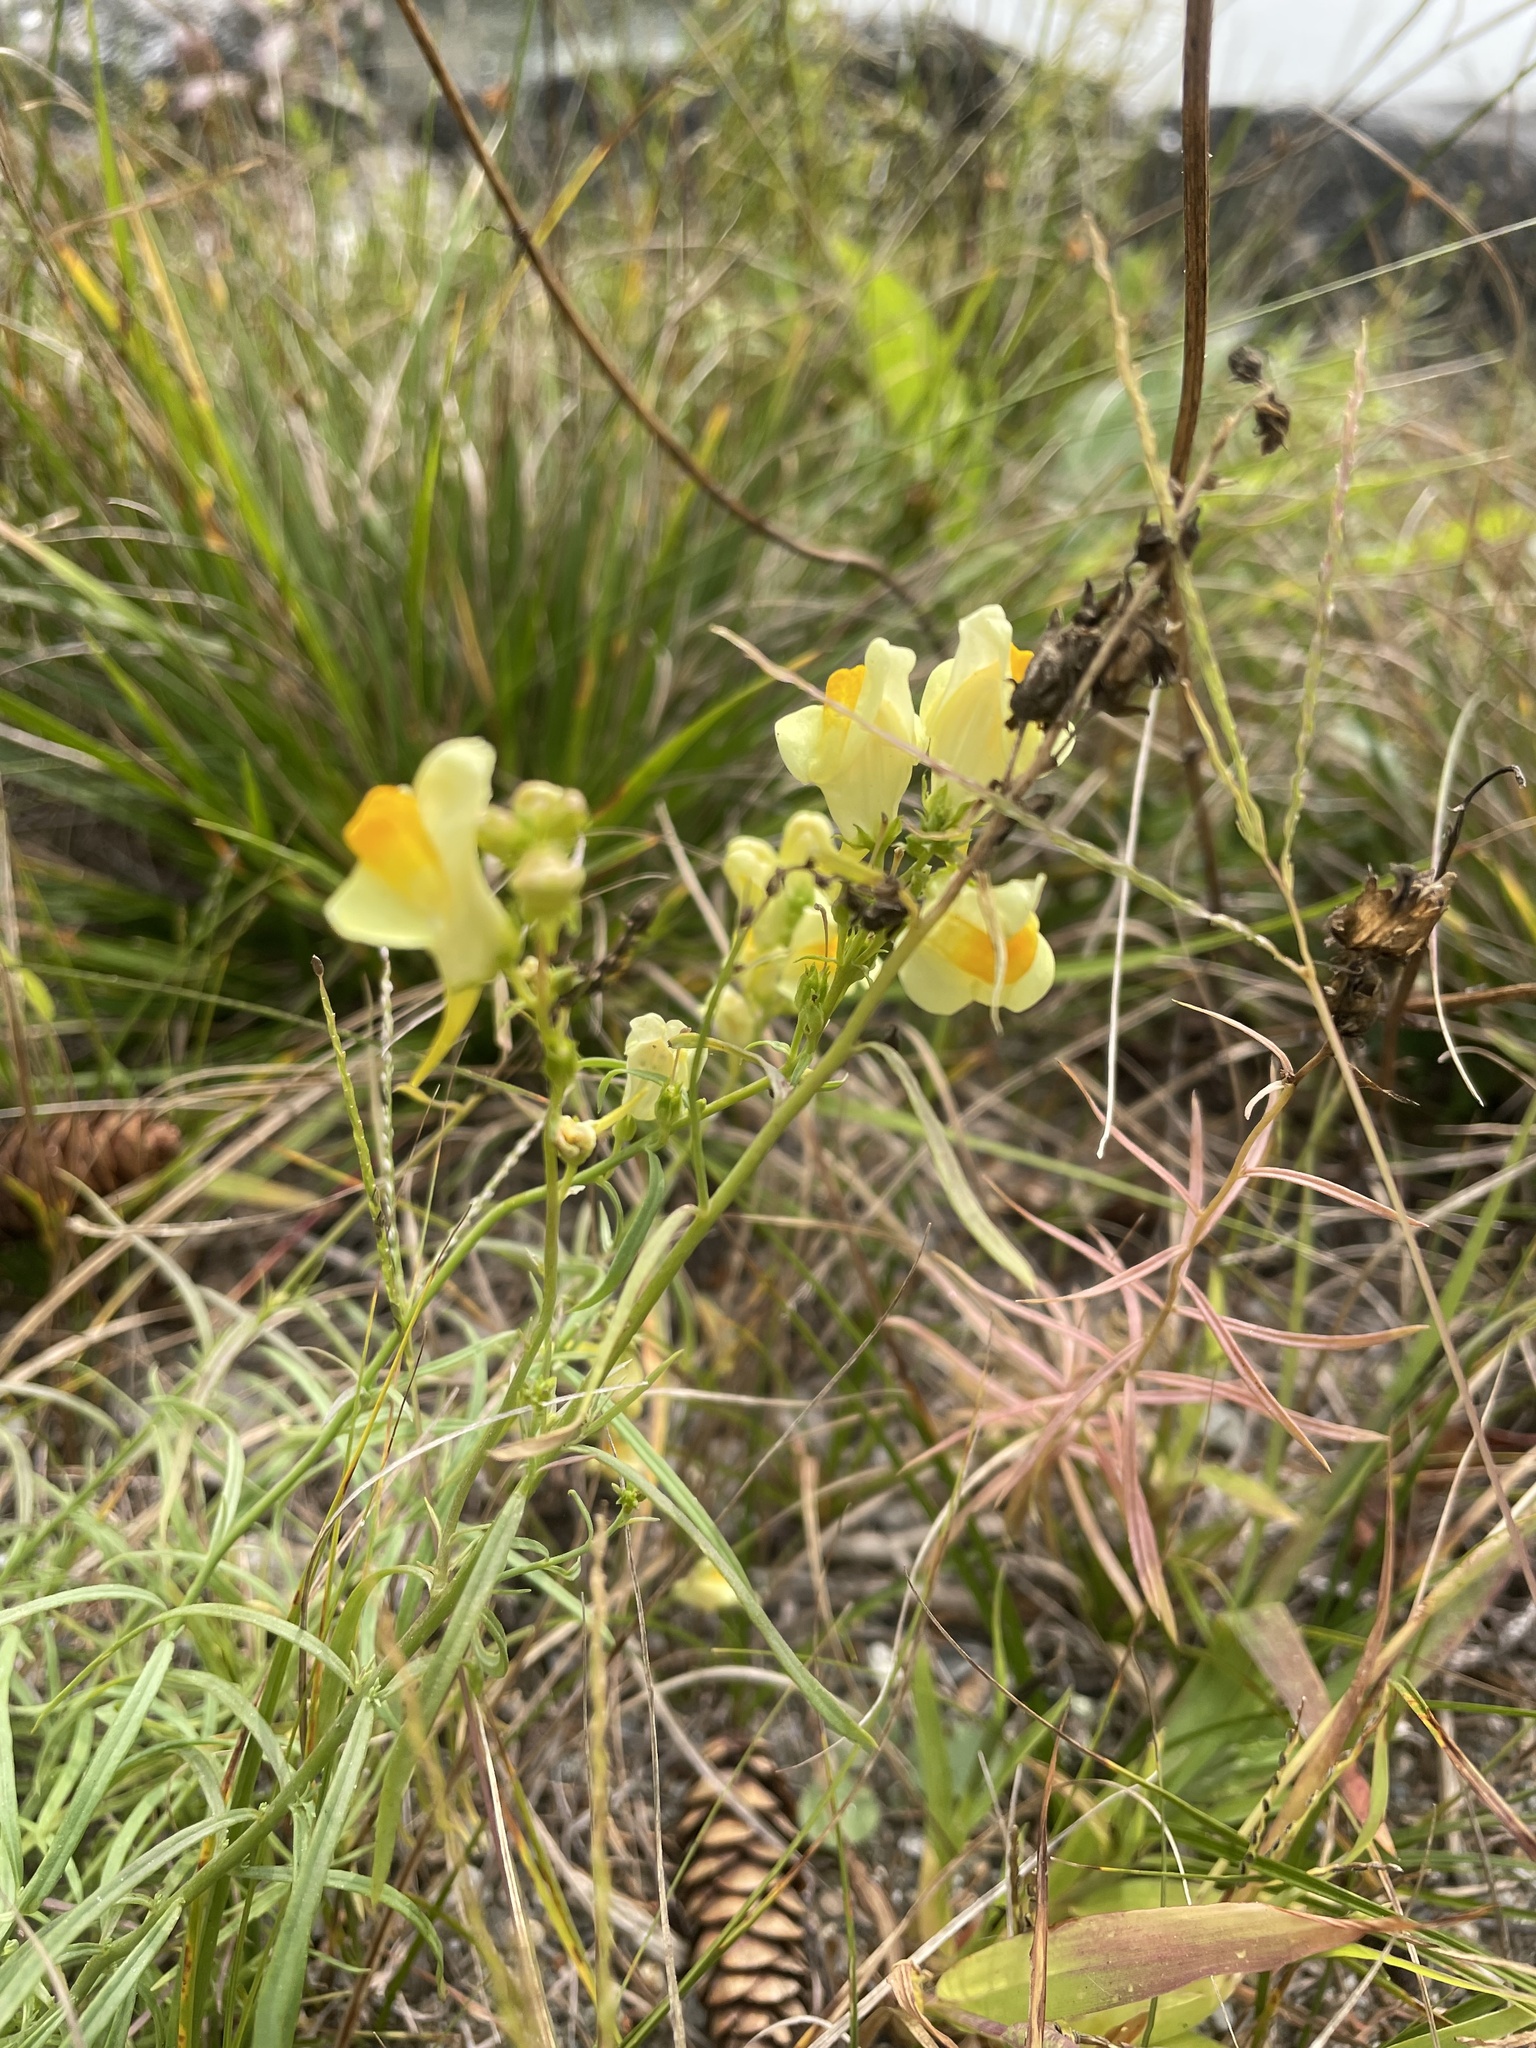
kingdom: Plantae
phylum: Tracheophyta
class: Magnoliopsida
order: Lamiales
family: Plantaginaceae
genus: Linaria
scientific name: Linaria vulgaris
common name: Butter and eggs
